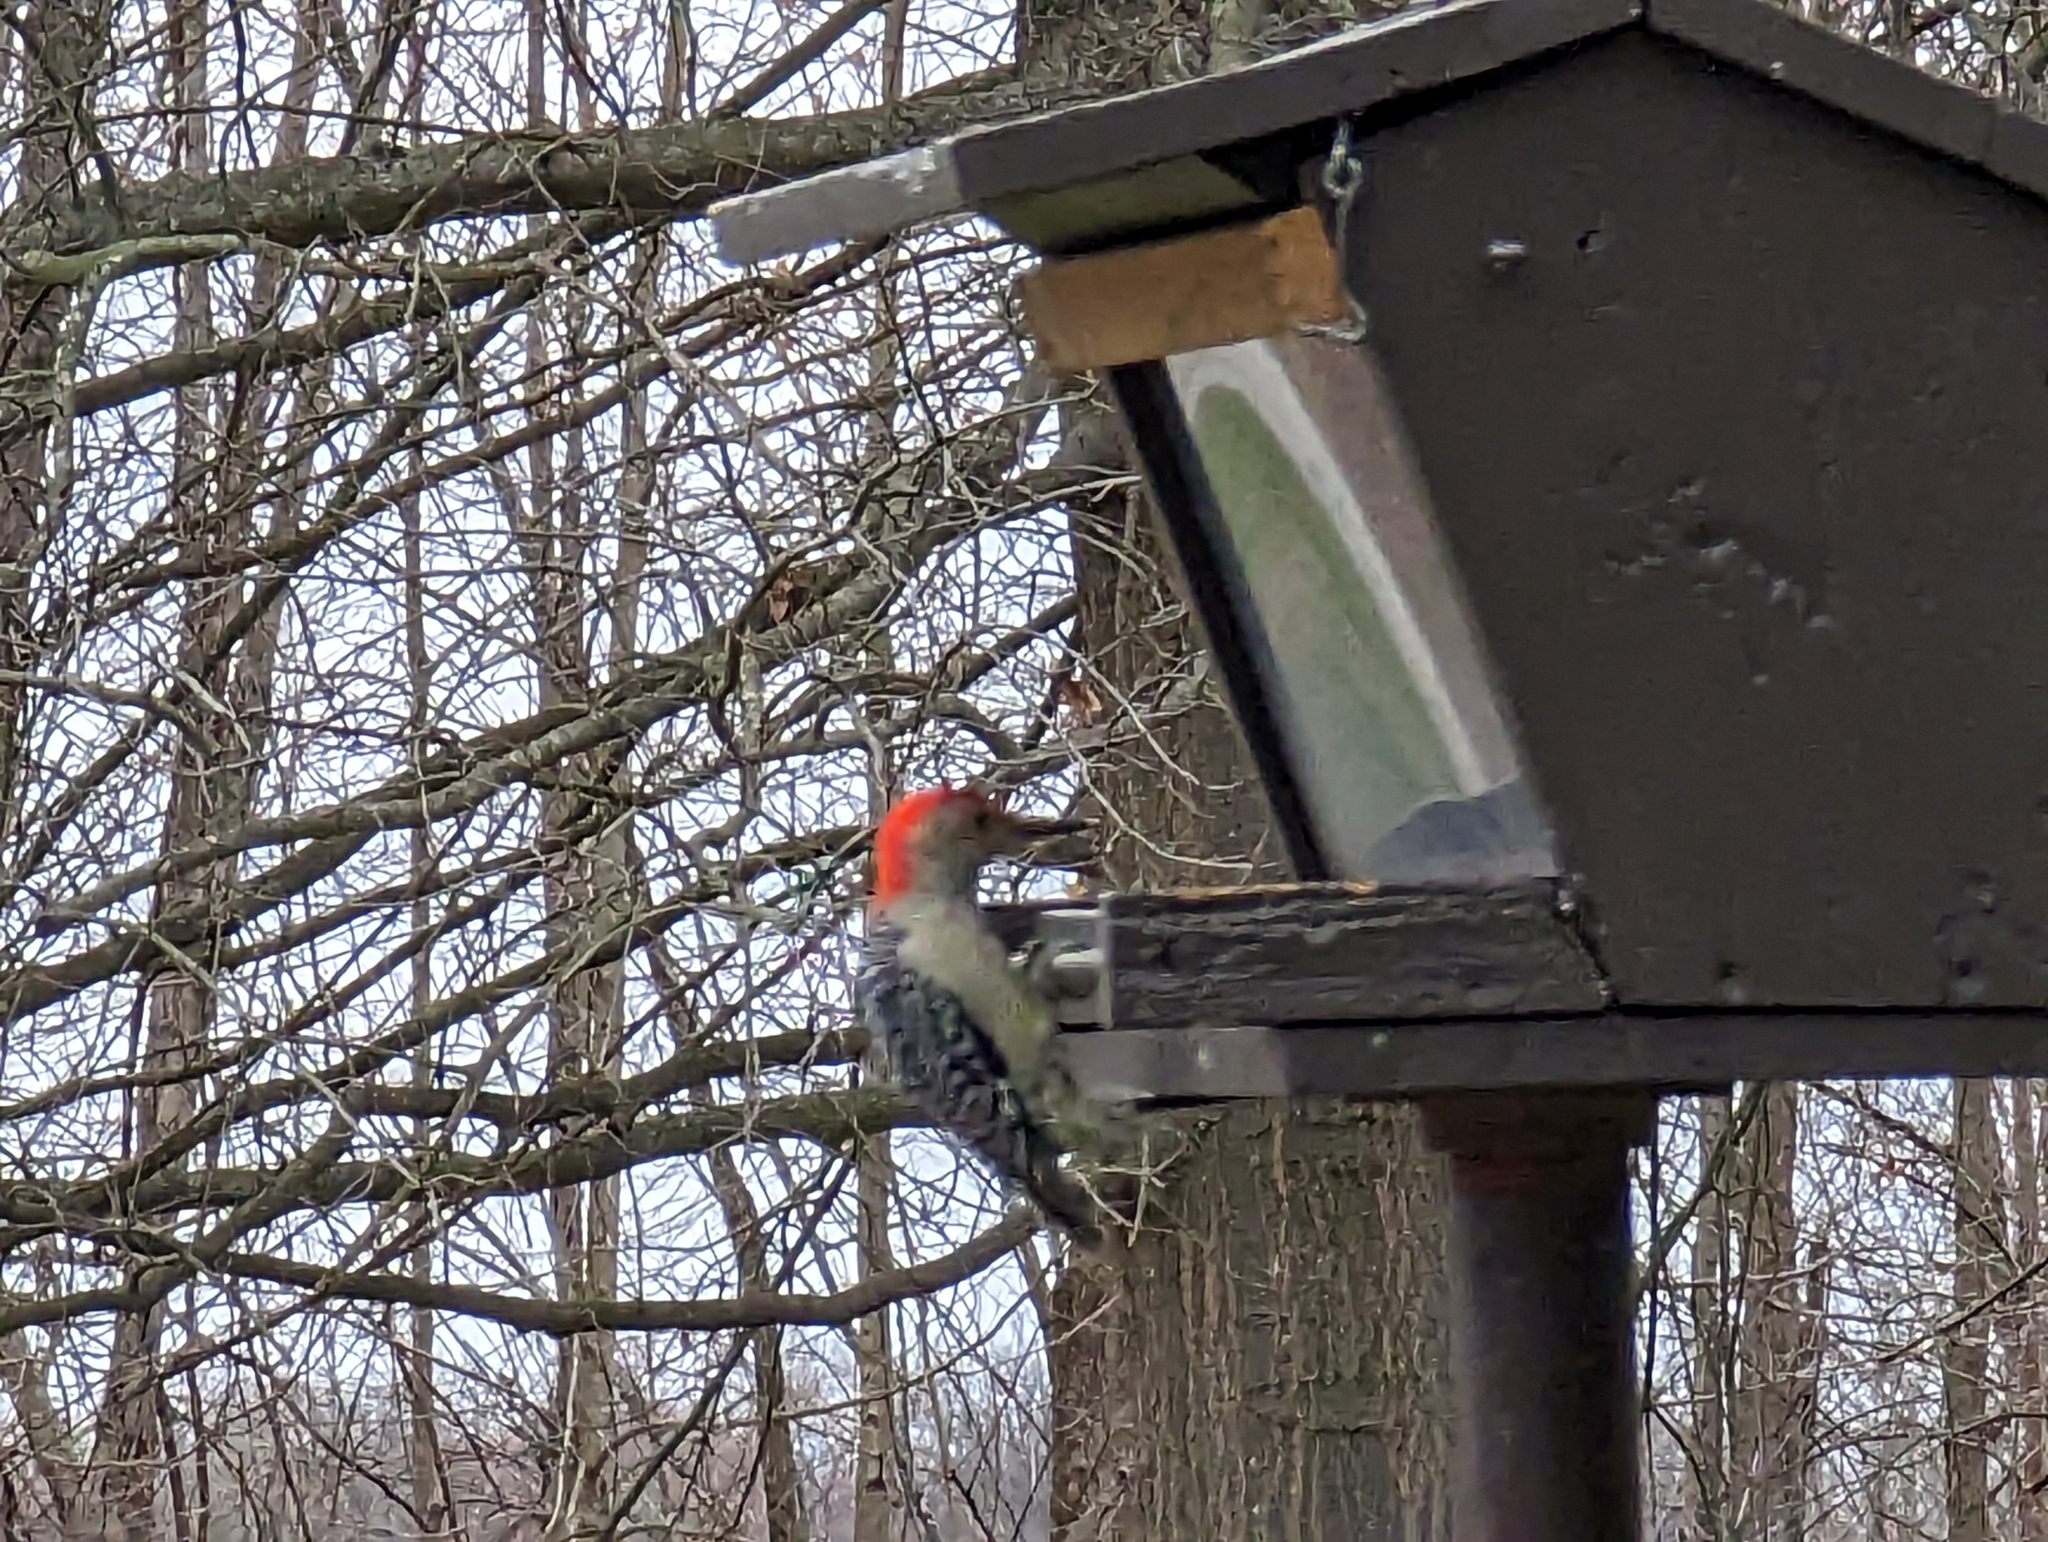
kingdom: Animalia
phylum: Chordata
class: Aves
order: Piciformes
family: Picidae
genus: Melanerpes
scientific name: Melanerpes carolinus
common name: Red-bellied woodpecker
